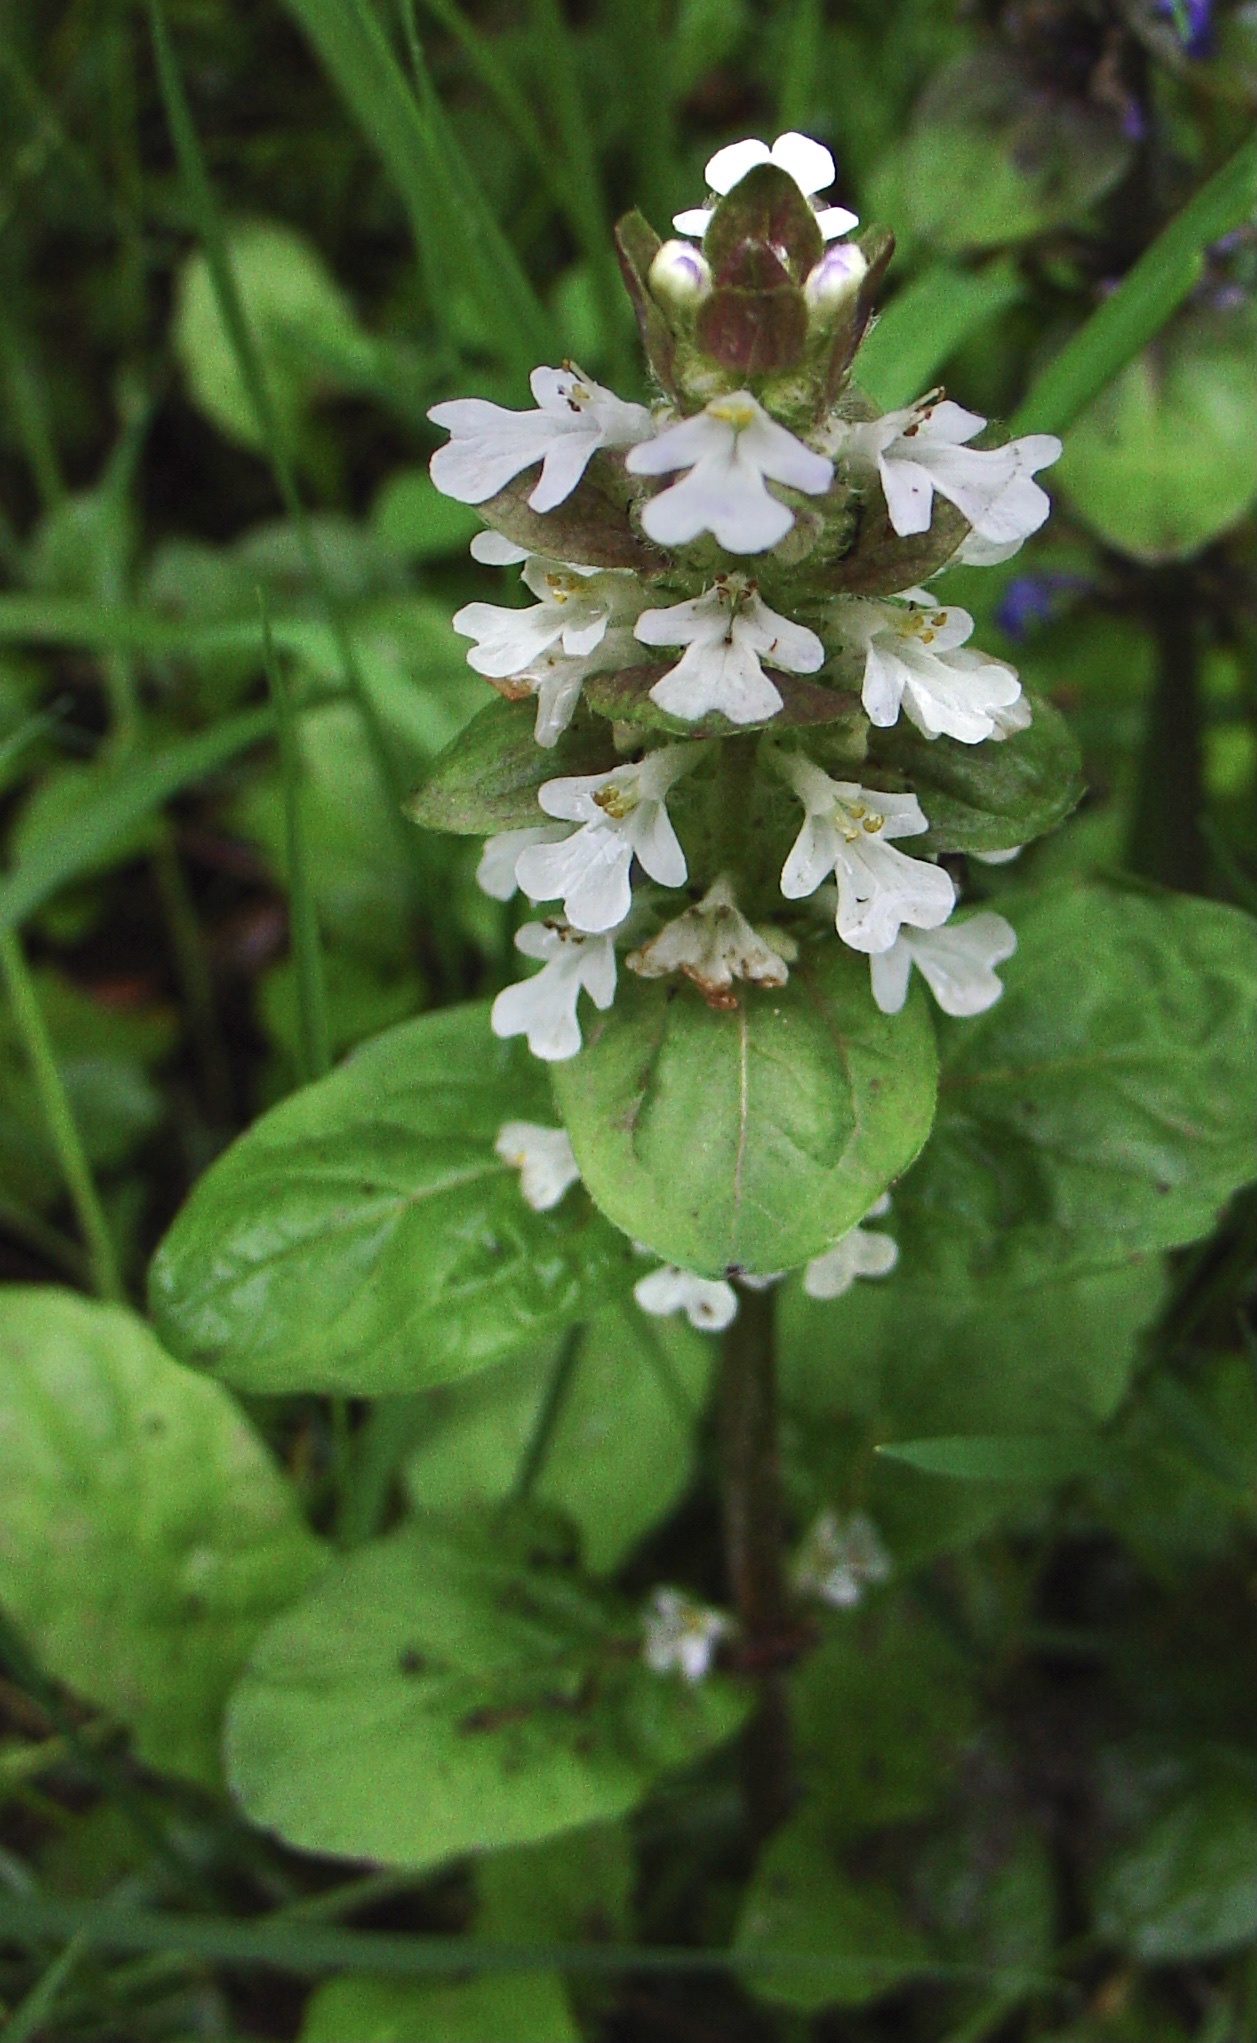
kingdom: Plantae
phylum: Tracheophyta
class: Magnoliopsida
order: Lamiales
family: Lamiaceae
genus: Ajuga
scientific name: Ajuga reptans
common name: Bugle
